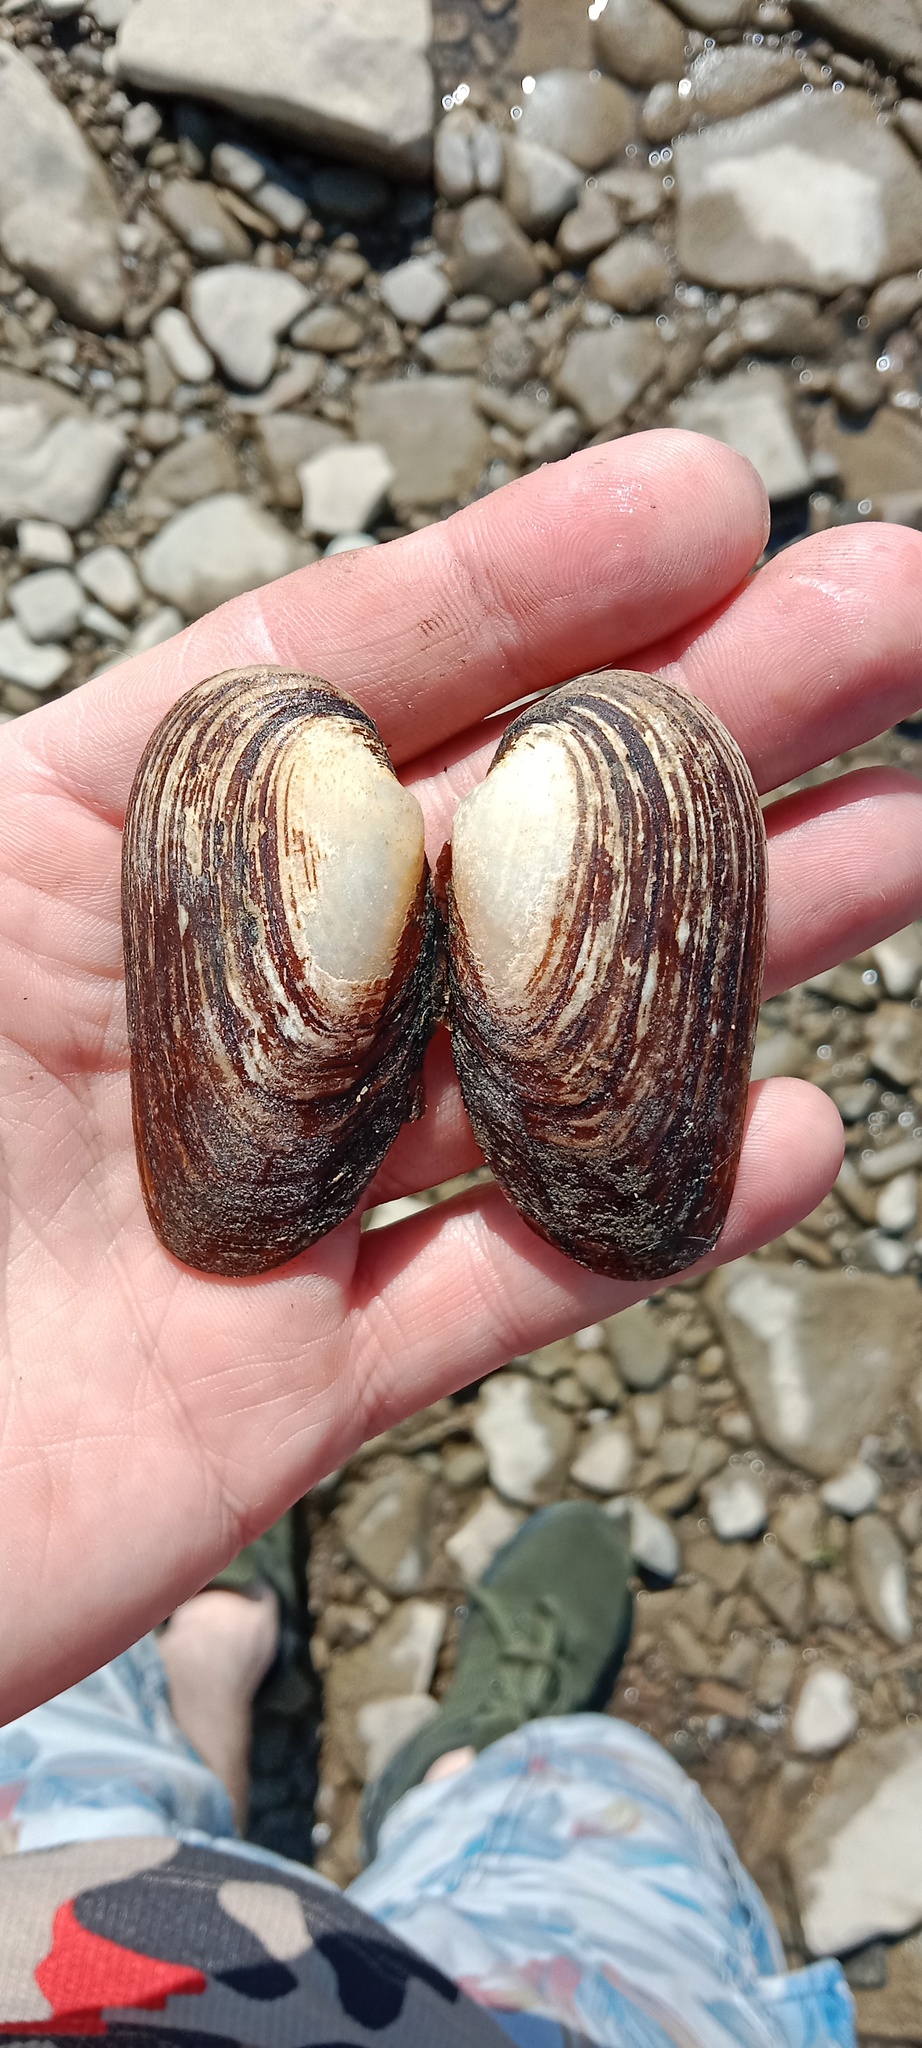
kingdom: Animalia
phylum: Mollusca
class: Bivalvia
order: Unionida
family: Unionidae
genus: Unio
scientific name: Unio crassus
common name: Thick shelled river mussel
